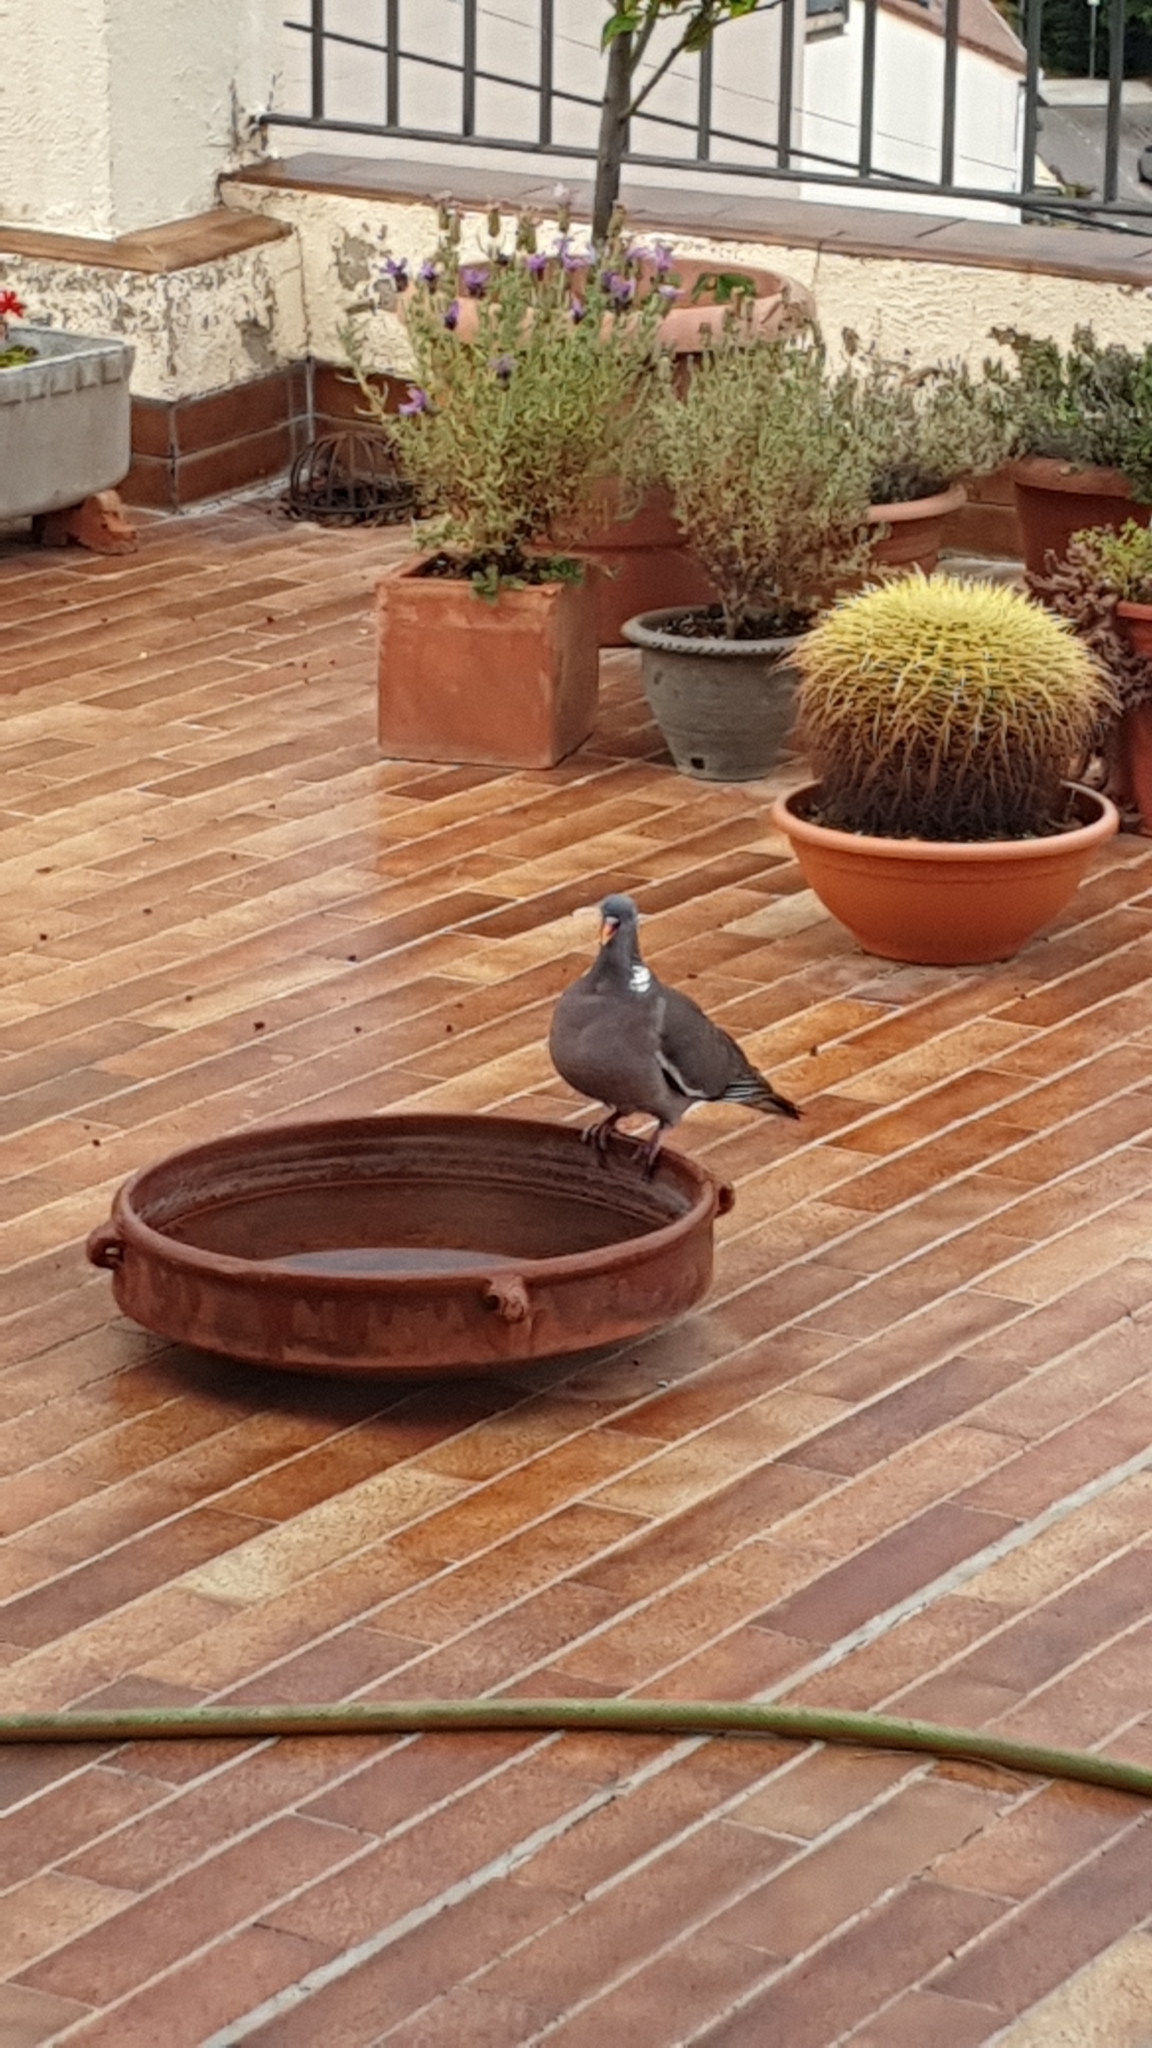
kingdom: Animalia
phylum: Chordata
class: Aves
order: Columbiformes
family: Columbidae
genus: Columba
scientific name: Columba palumbus
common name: Common wood pigeon
